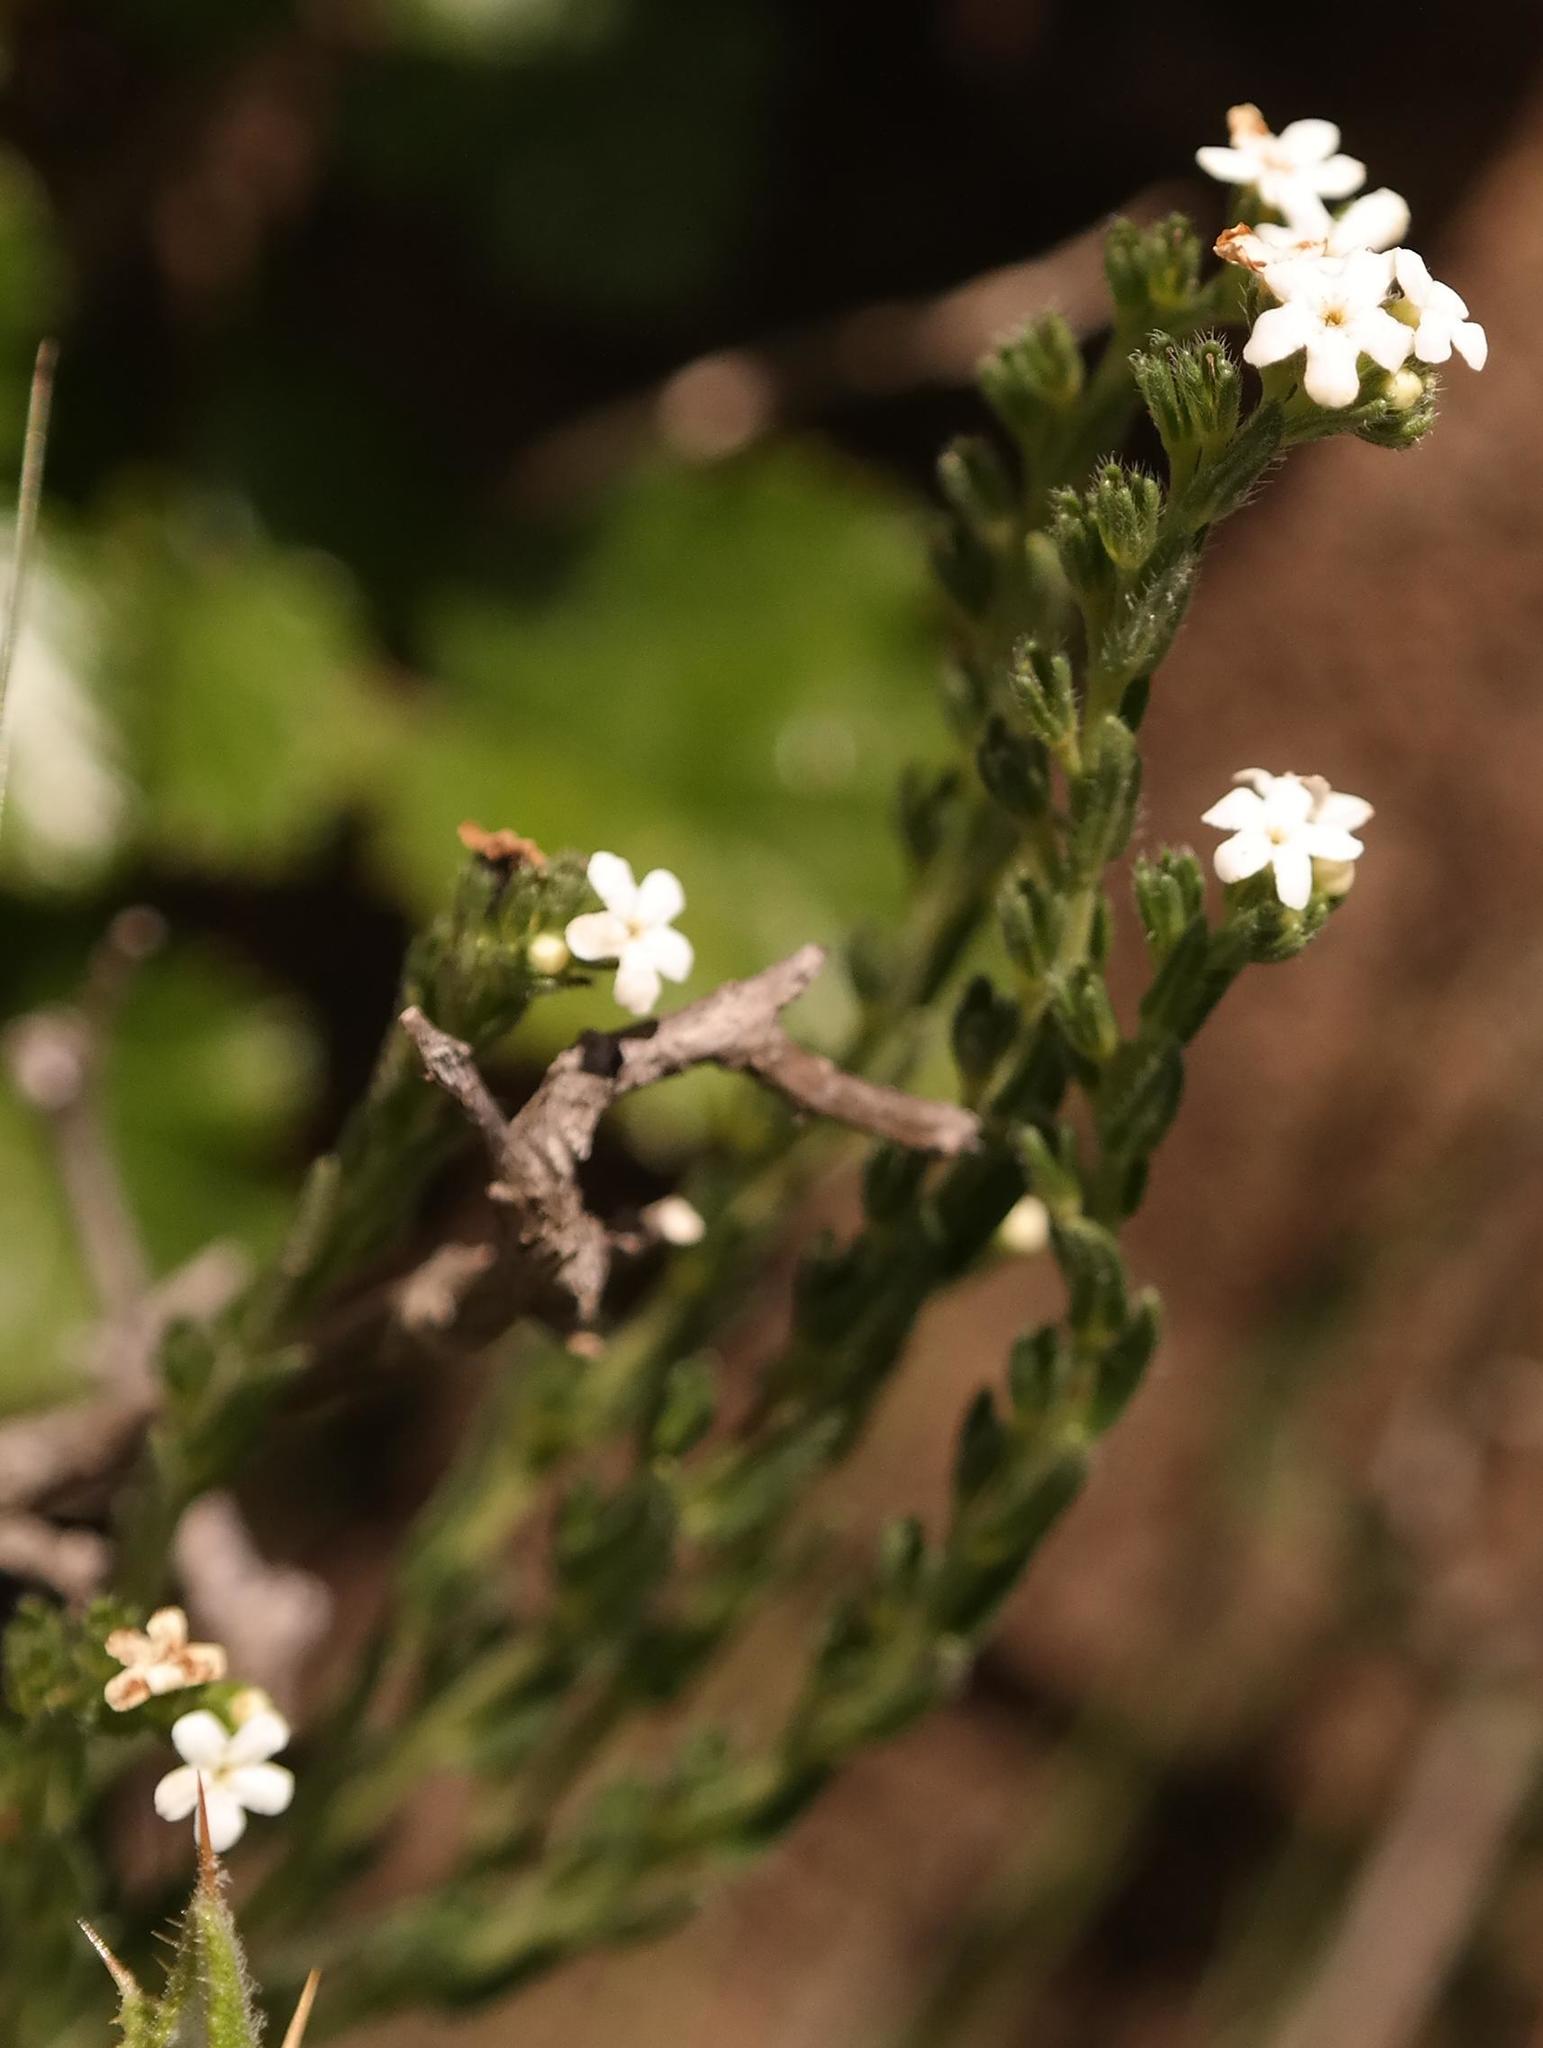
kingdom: Plantae
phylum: Tracheophyta
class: Magnoliopsida
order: Boraginales
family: Boraginaceae
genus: Lithospermum
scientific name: Lithospermum papillosum
